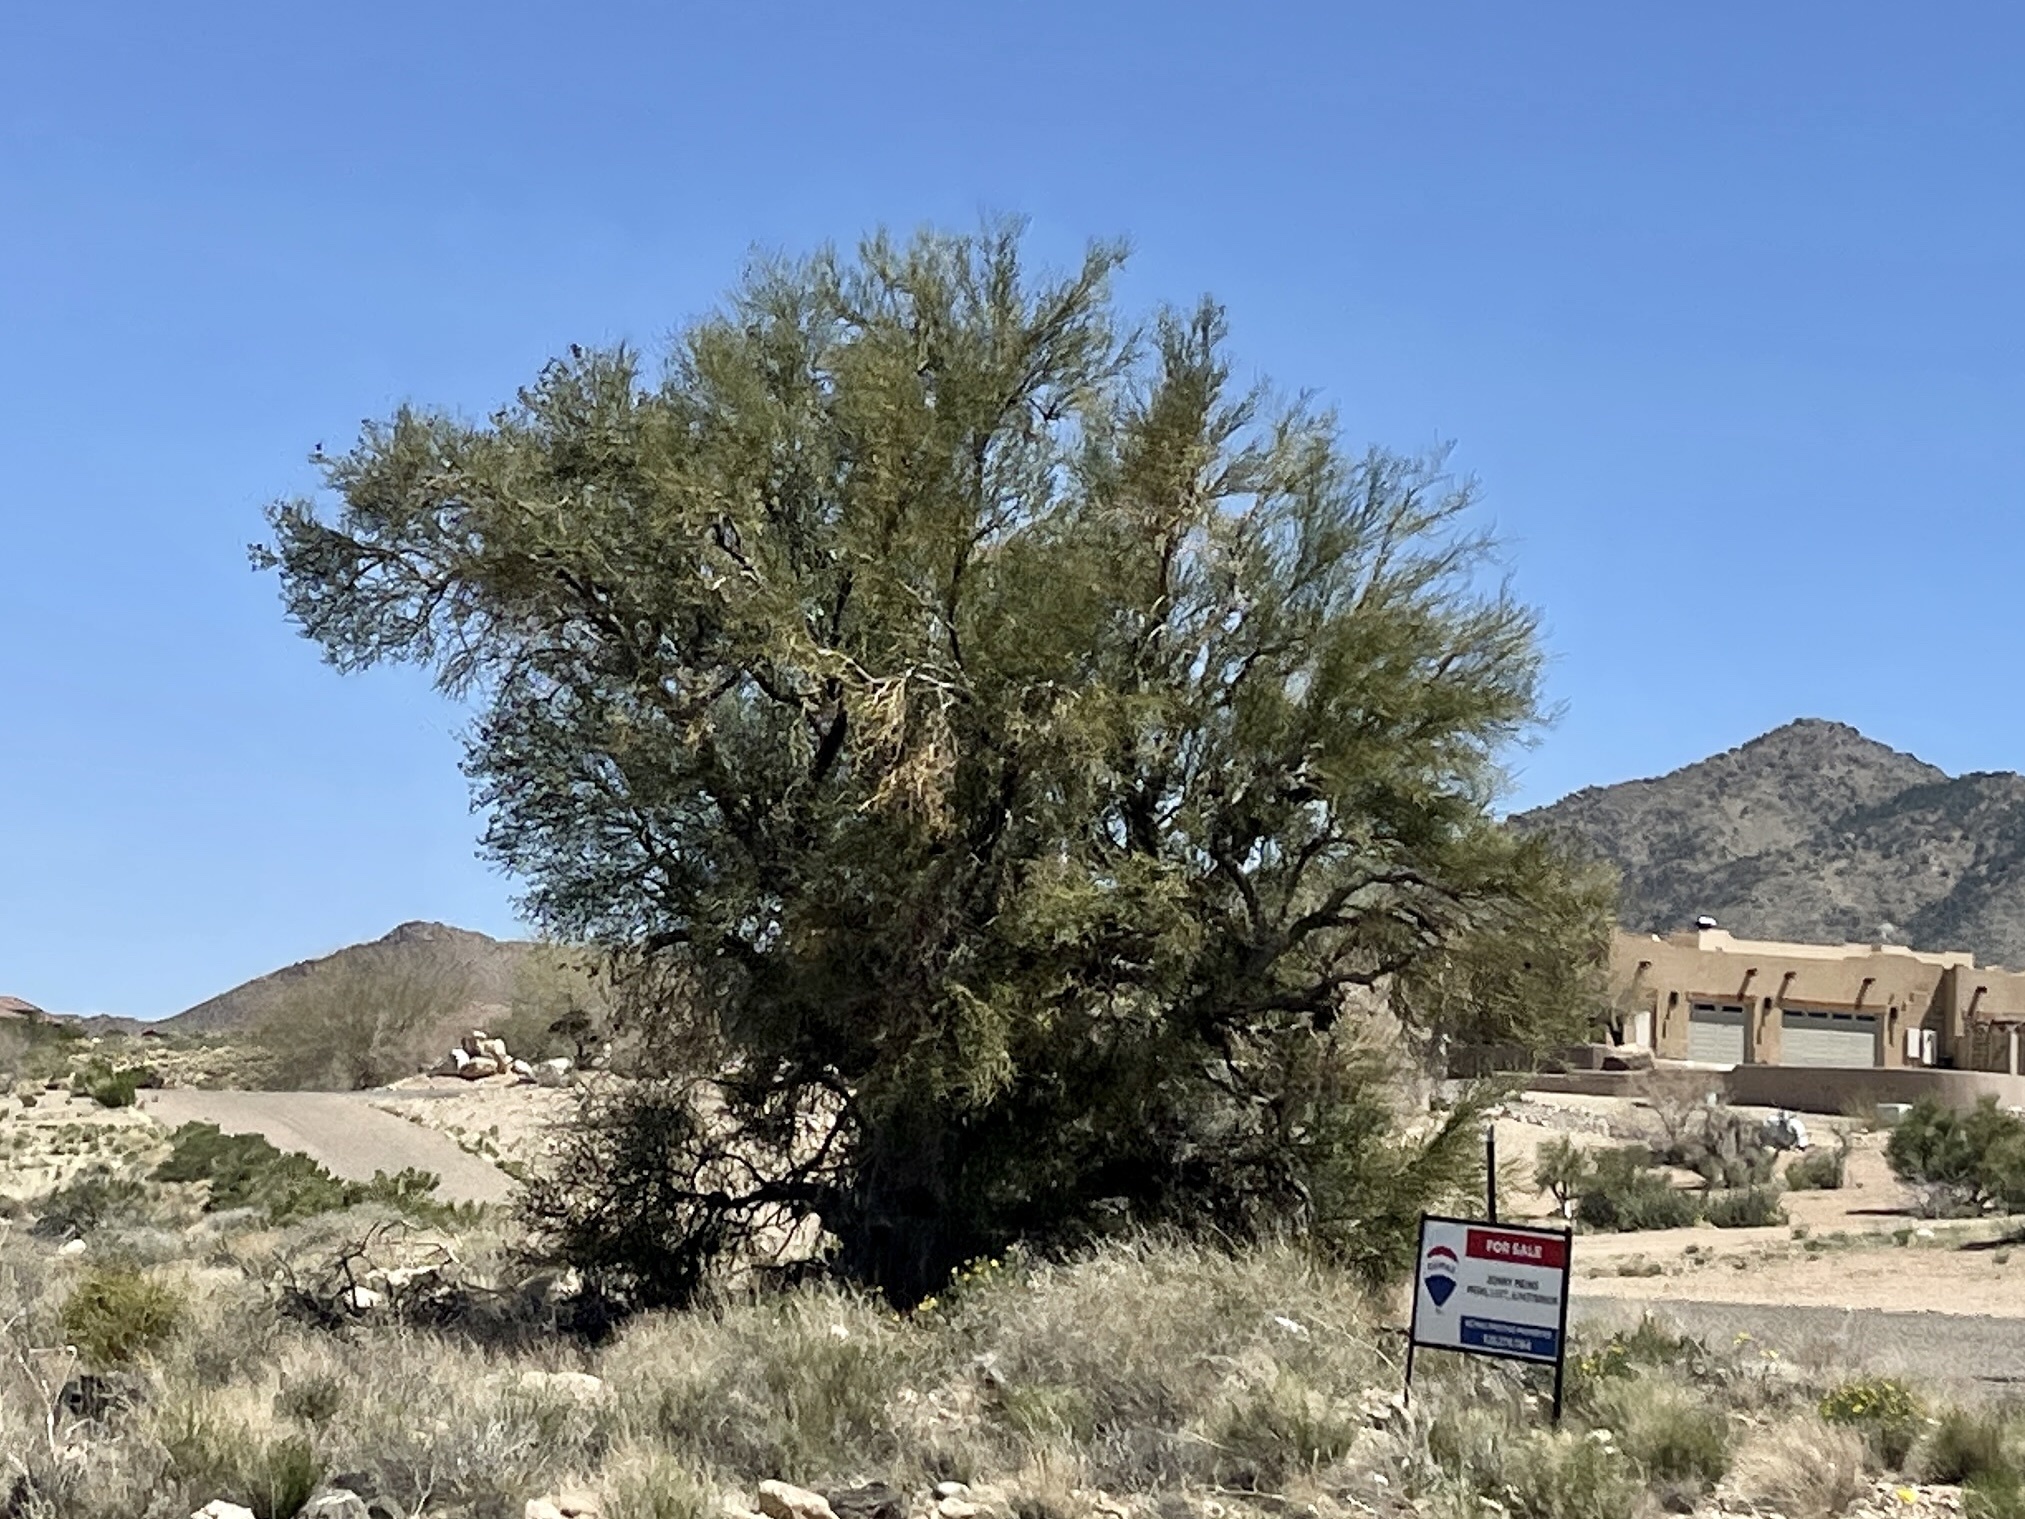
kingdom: Plantae
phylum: Tracheophyta
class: Magnoliopsida
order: Celastrales
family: Celastraceae
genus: Canotia
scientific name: Canotia holacantha
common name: Crucifixion thorns
